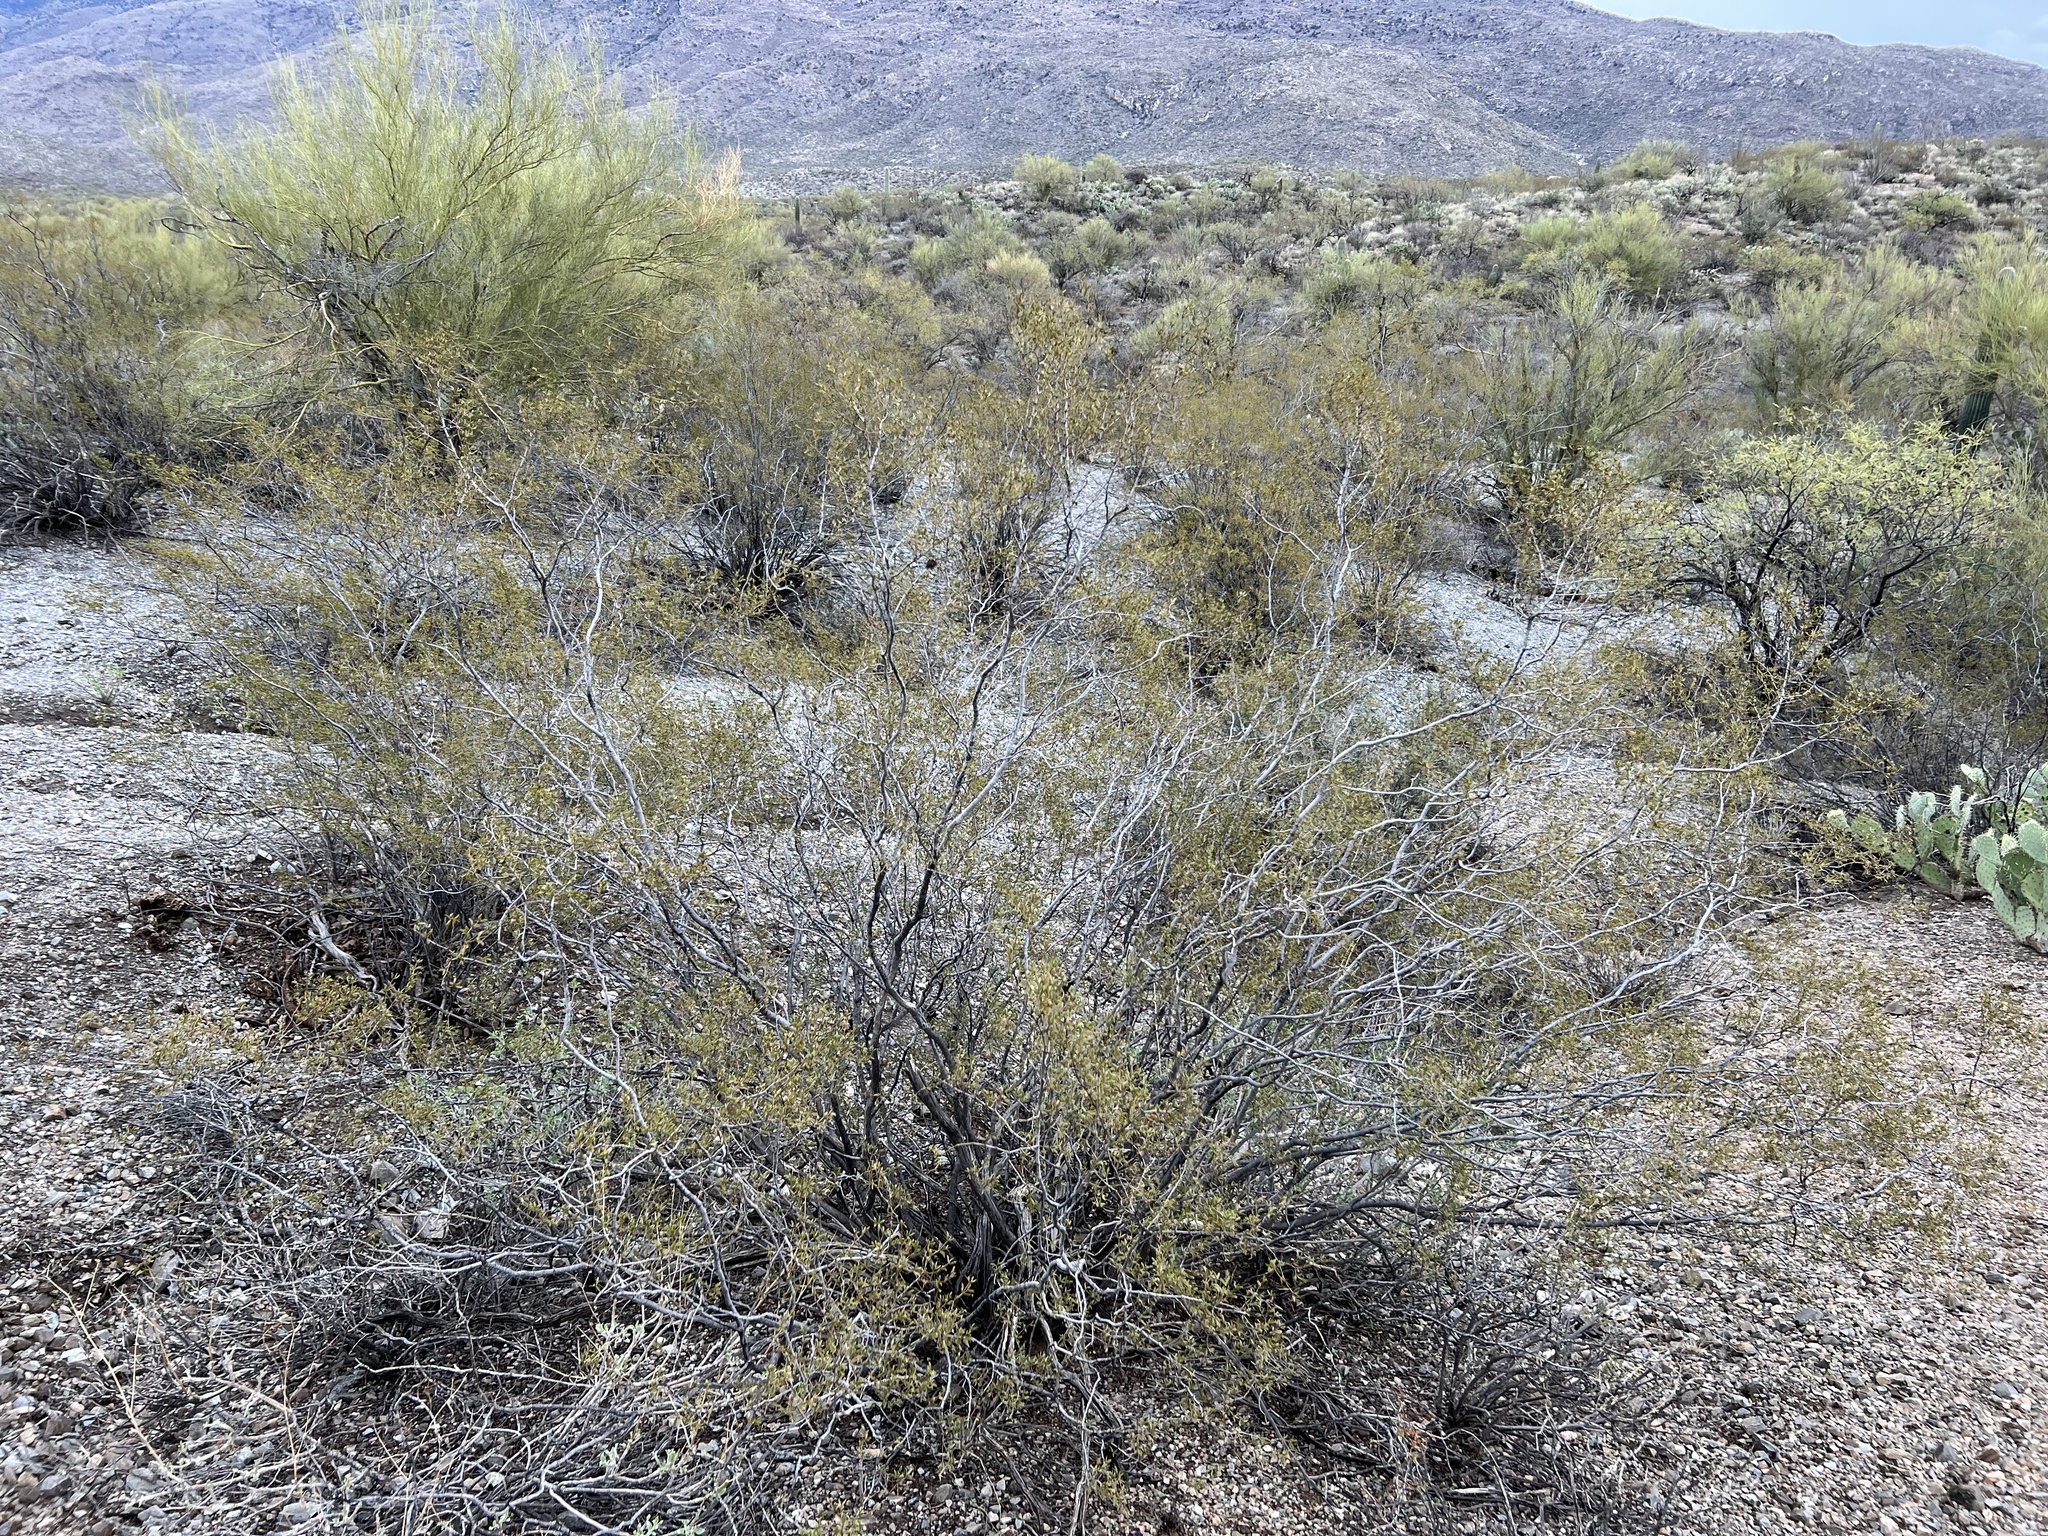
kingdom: Plantae
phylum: Tracheophyta
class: Magnoliopsida
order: Zygophyllales
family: Zygophyllaceae
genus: Larrea
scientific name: Larrea tridentata
